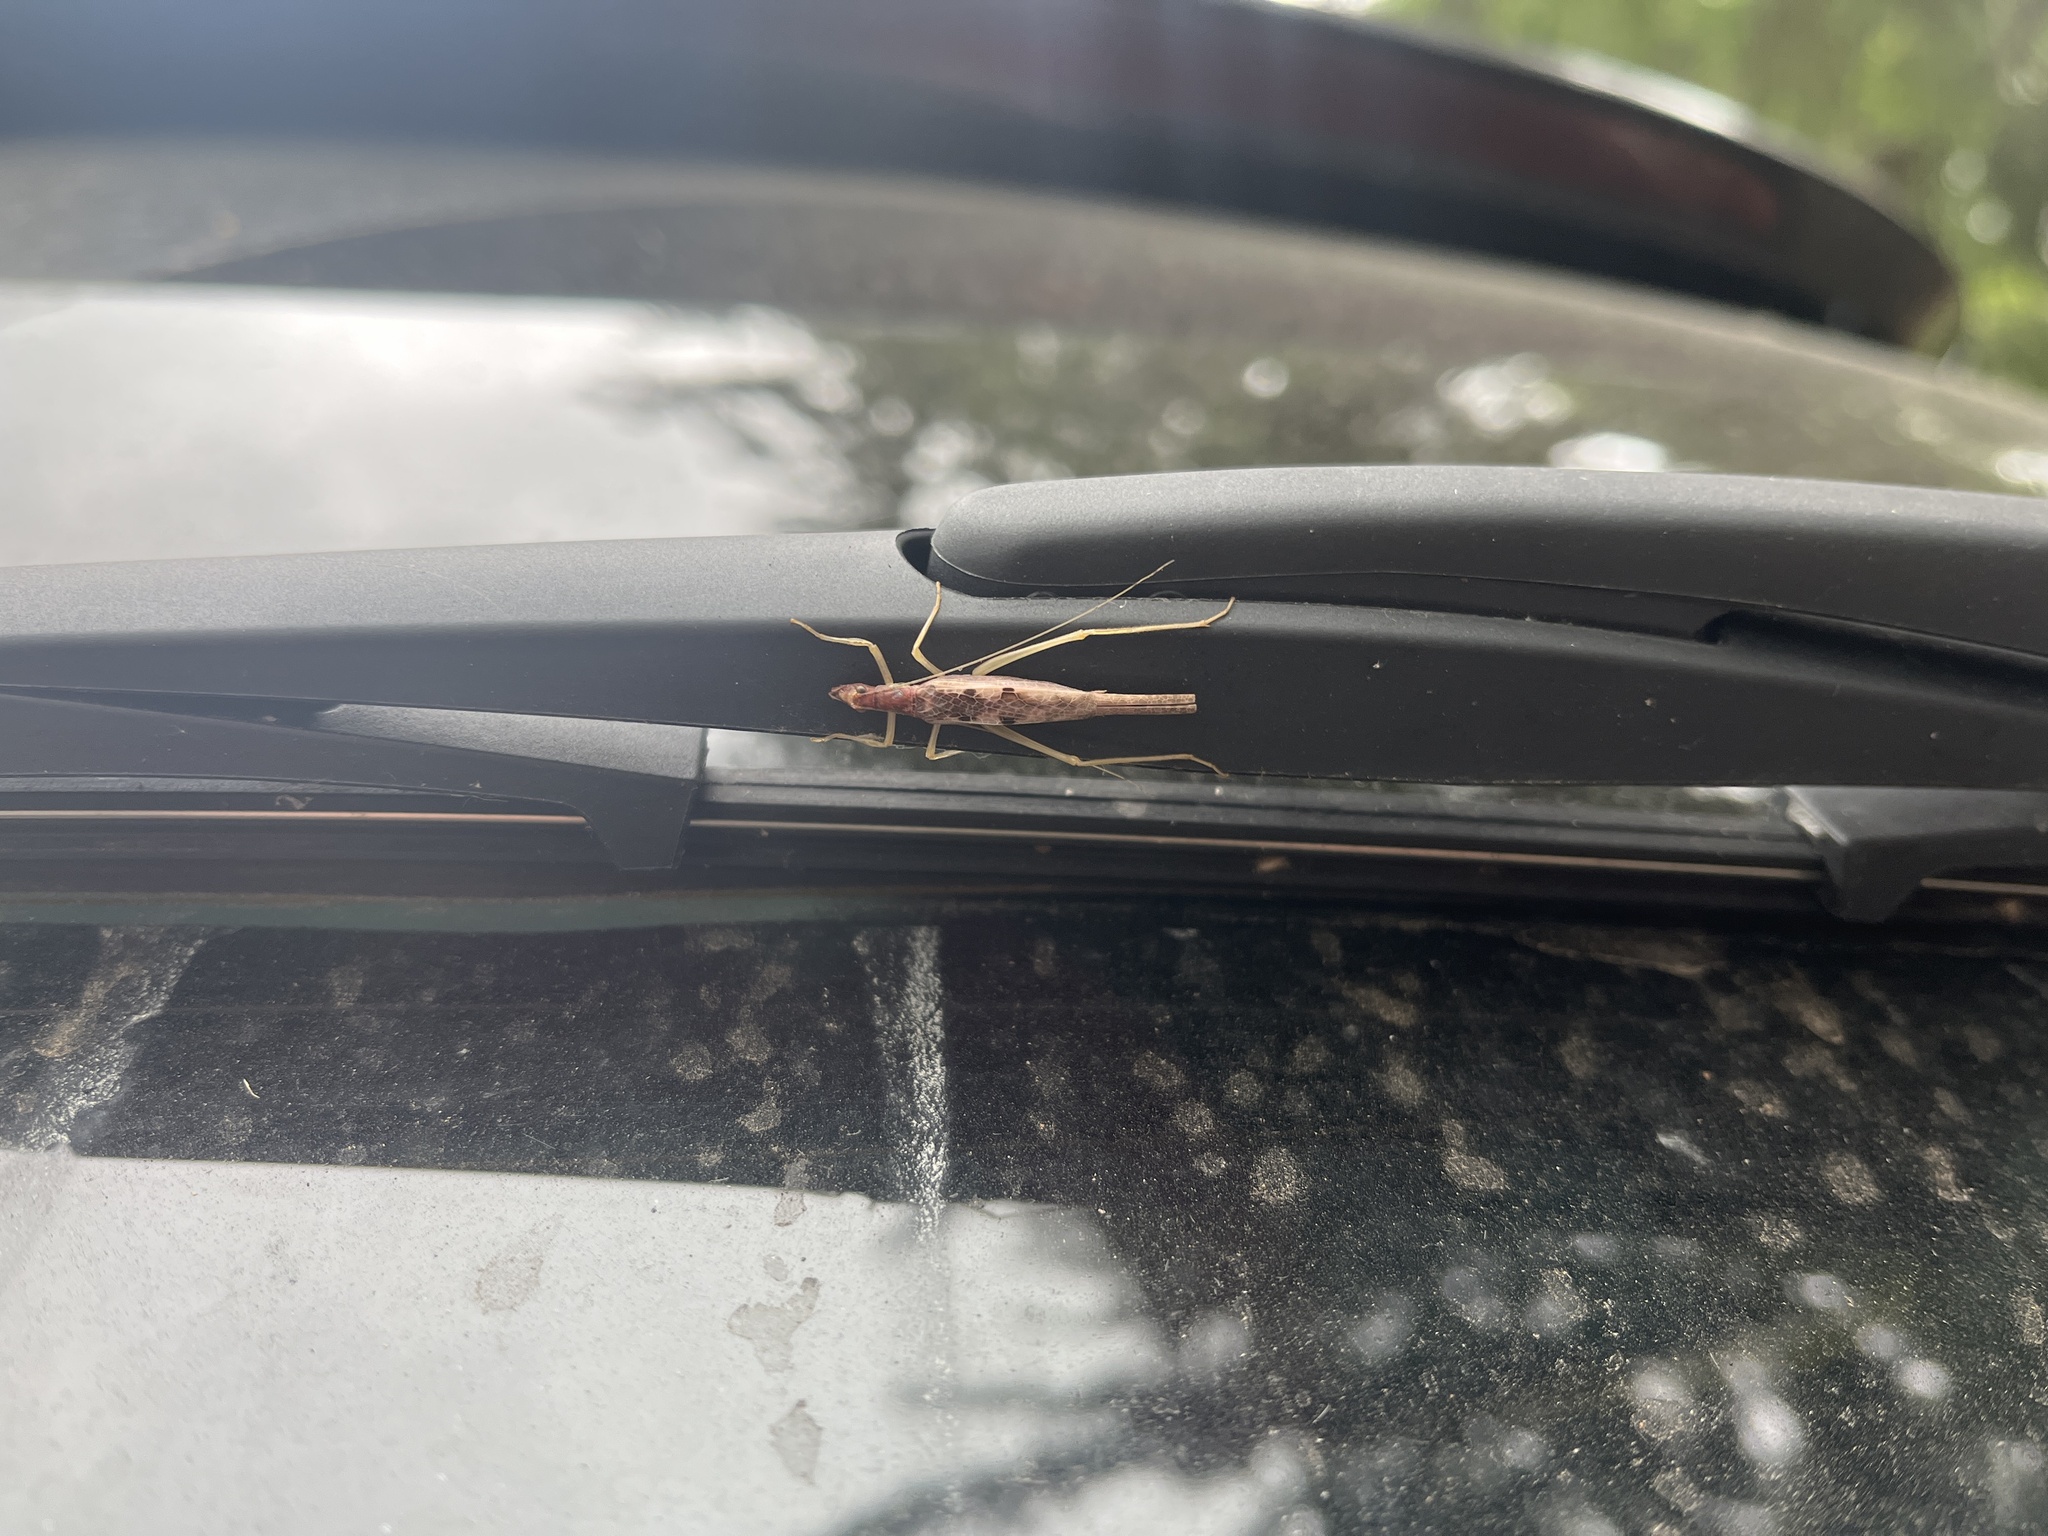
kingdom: Animalia
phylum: Arthropoda
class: Insecta
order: Orthoptera
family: Gryllidae
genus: Neoxabea
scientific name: Neoxabea bipunctata
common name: Two-spotted tree cricket
